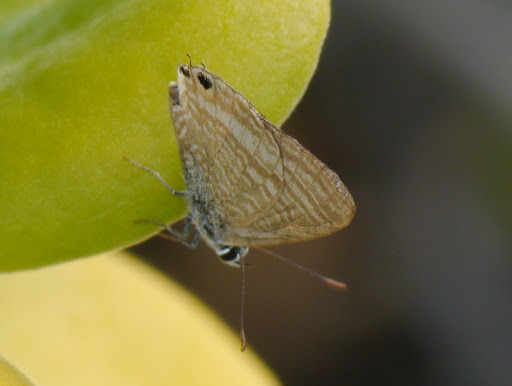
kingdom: Animalia
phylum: Arthropoda
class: Insecta
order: Lepidoptera
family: Lycaenidae
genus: Lampides
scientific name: Lampides boeticus
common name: Long-tailed blue
